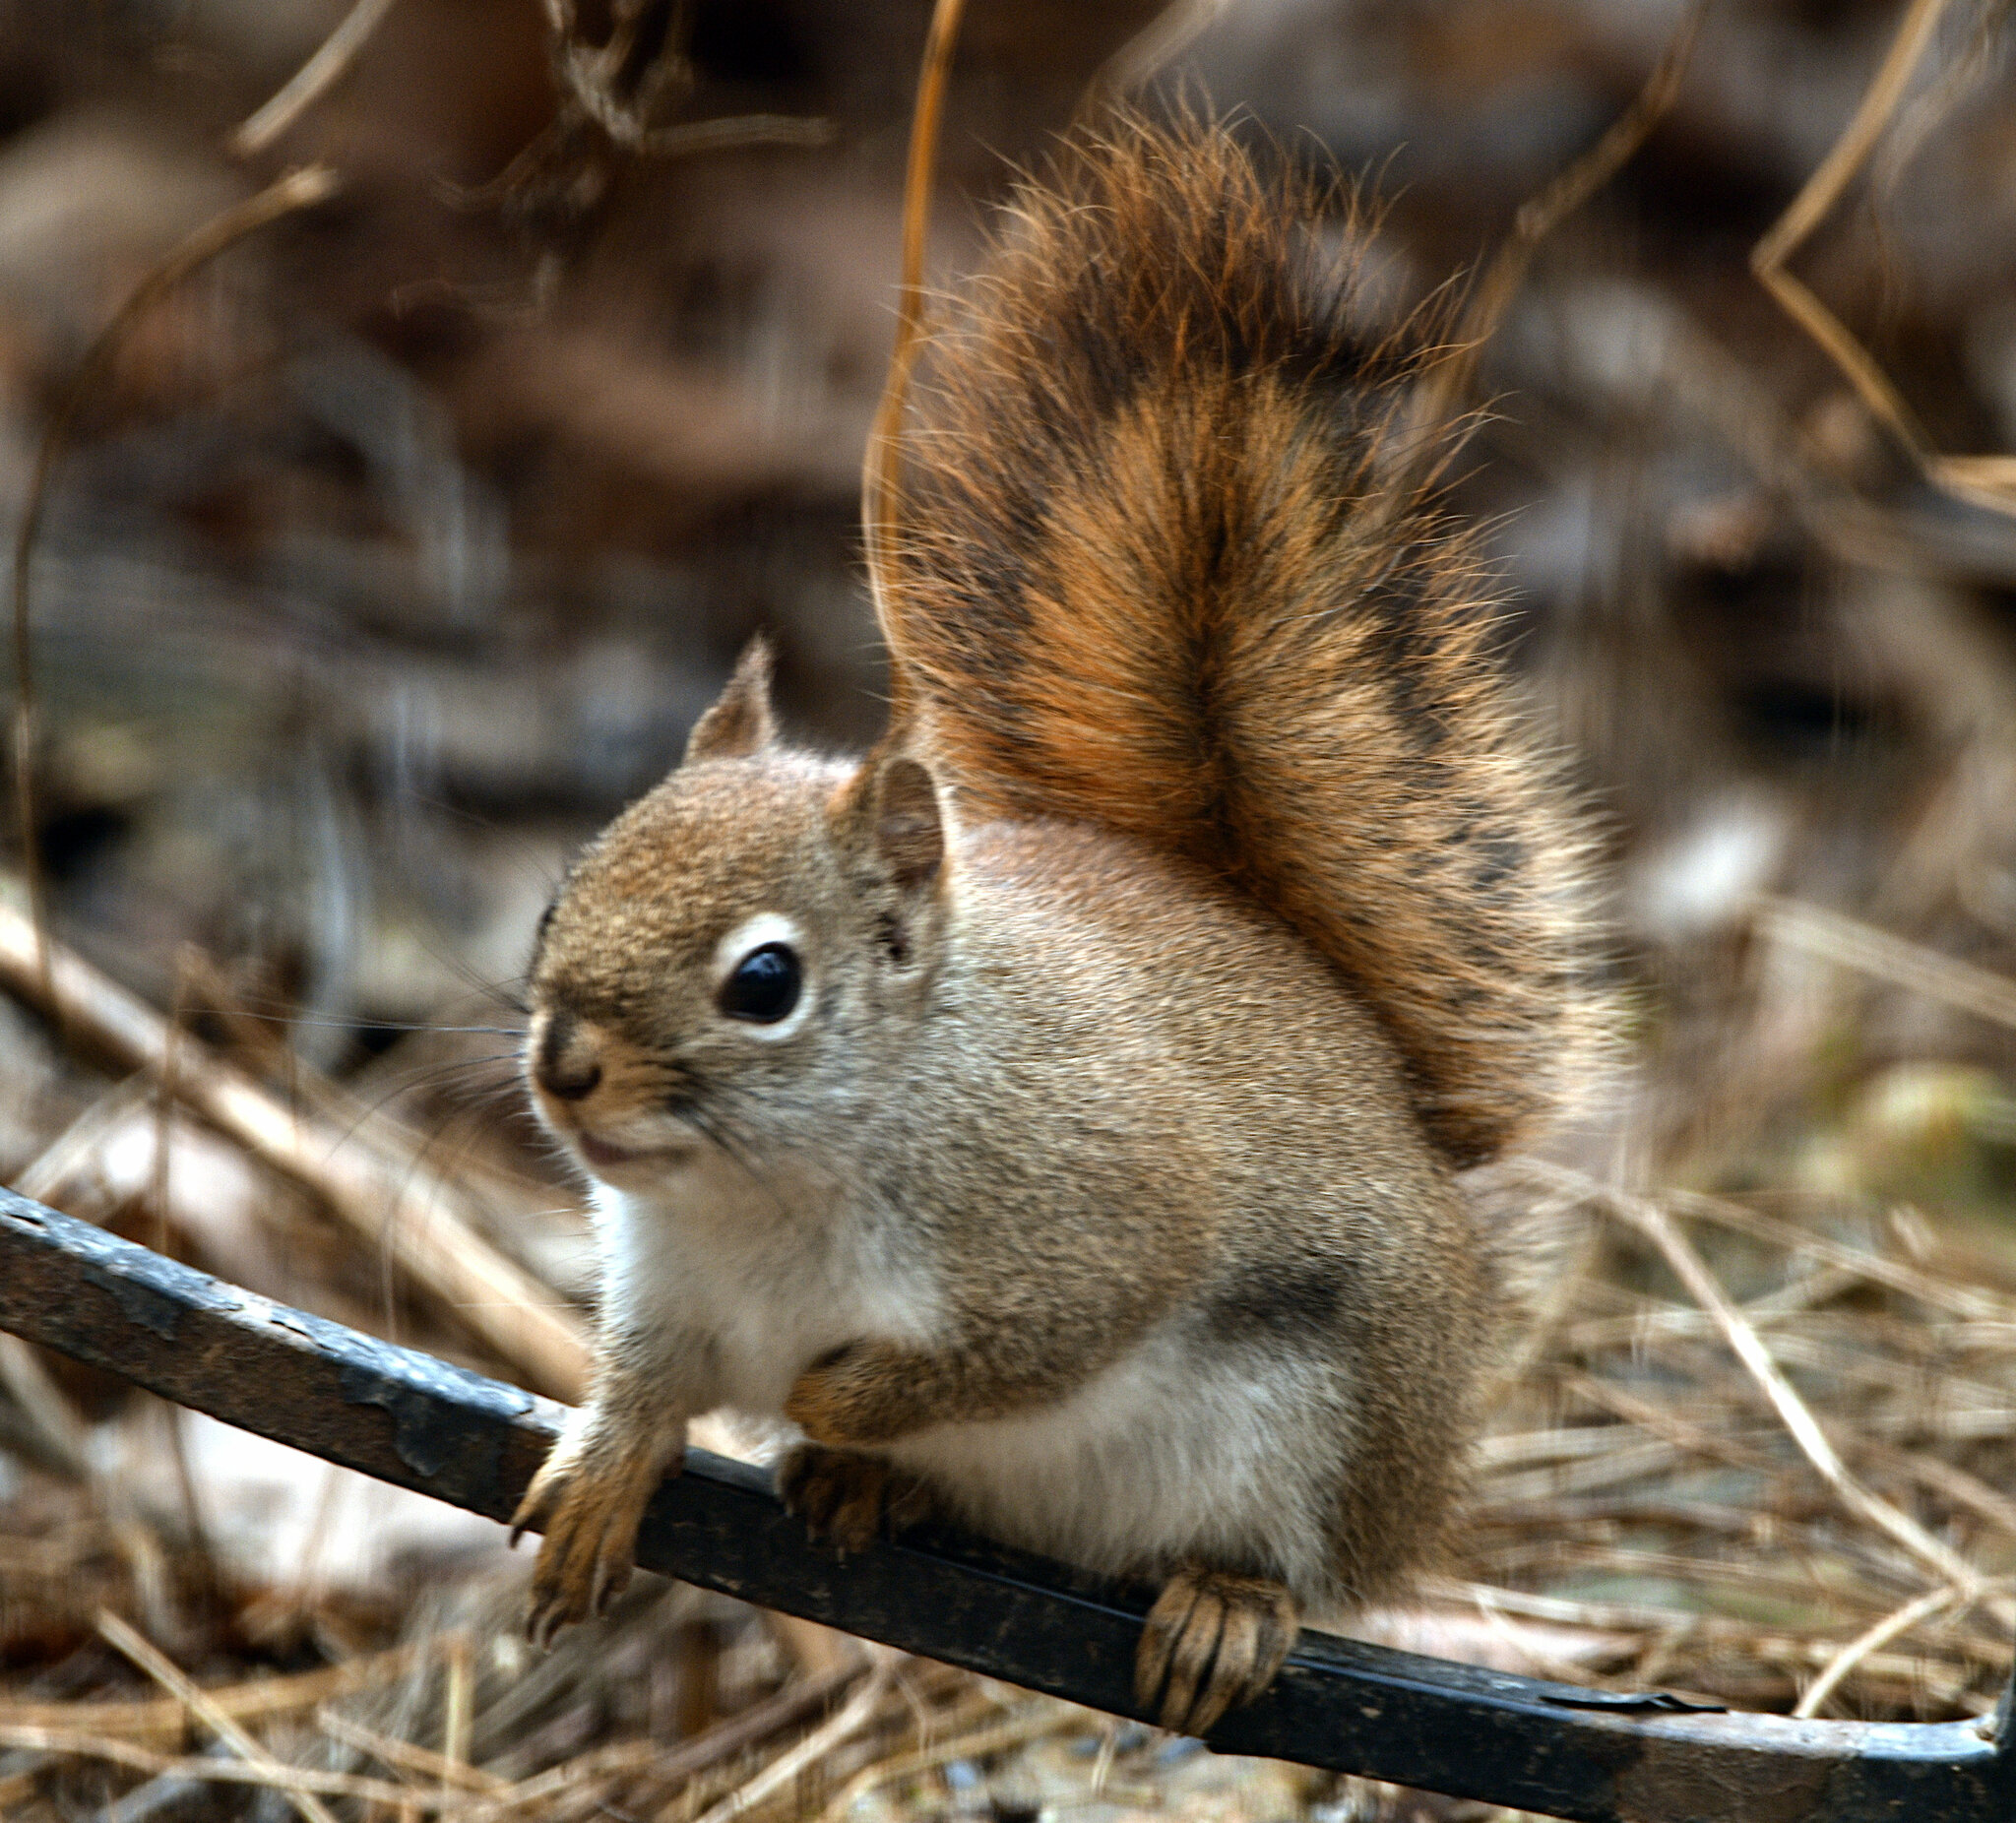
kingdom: Animalia
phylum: Chordata
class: Mammalia
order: Rodentia
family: Sciuridae
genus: Tamiasciurus
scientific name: Tamiasciurus hudsonicus
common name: Red squirrel
